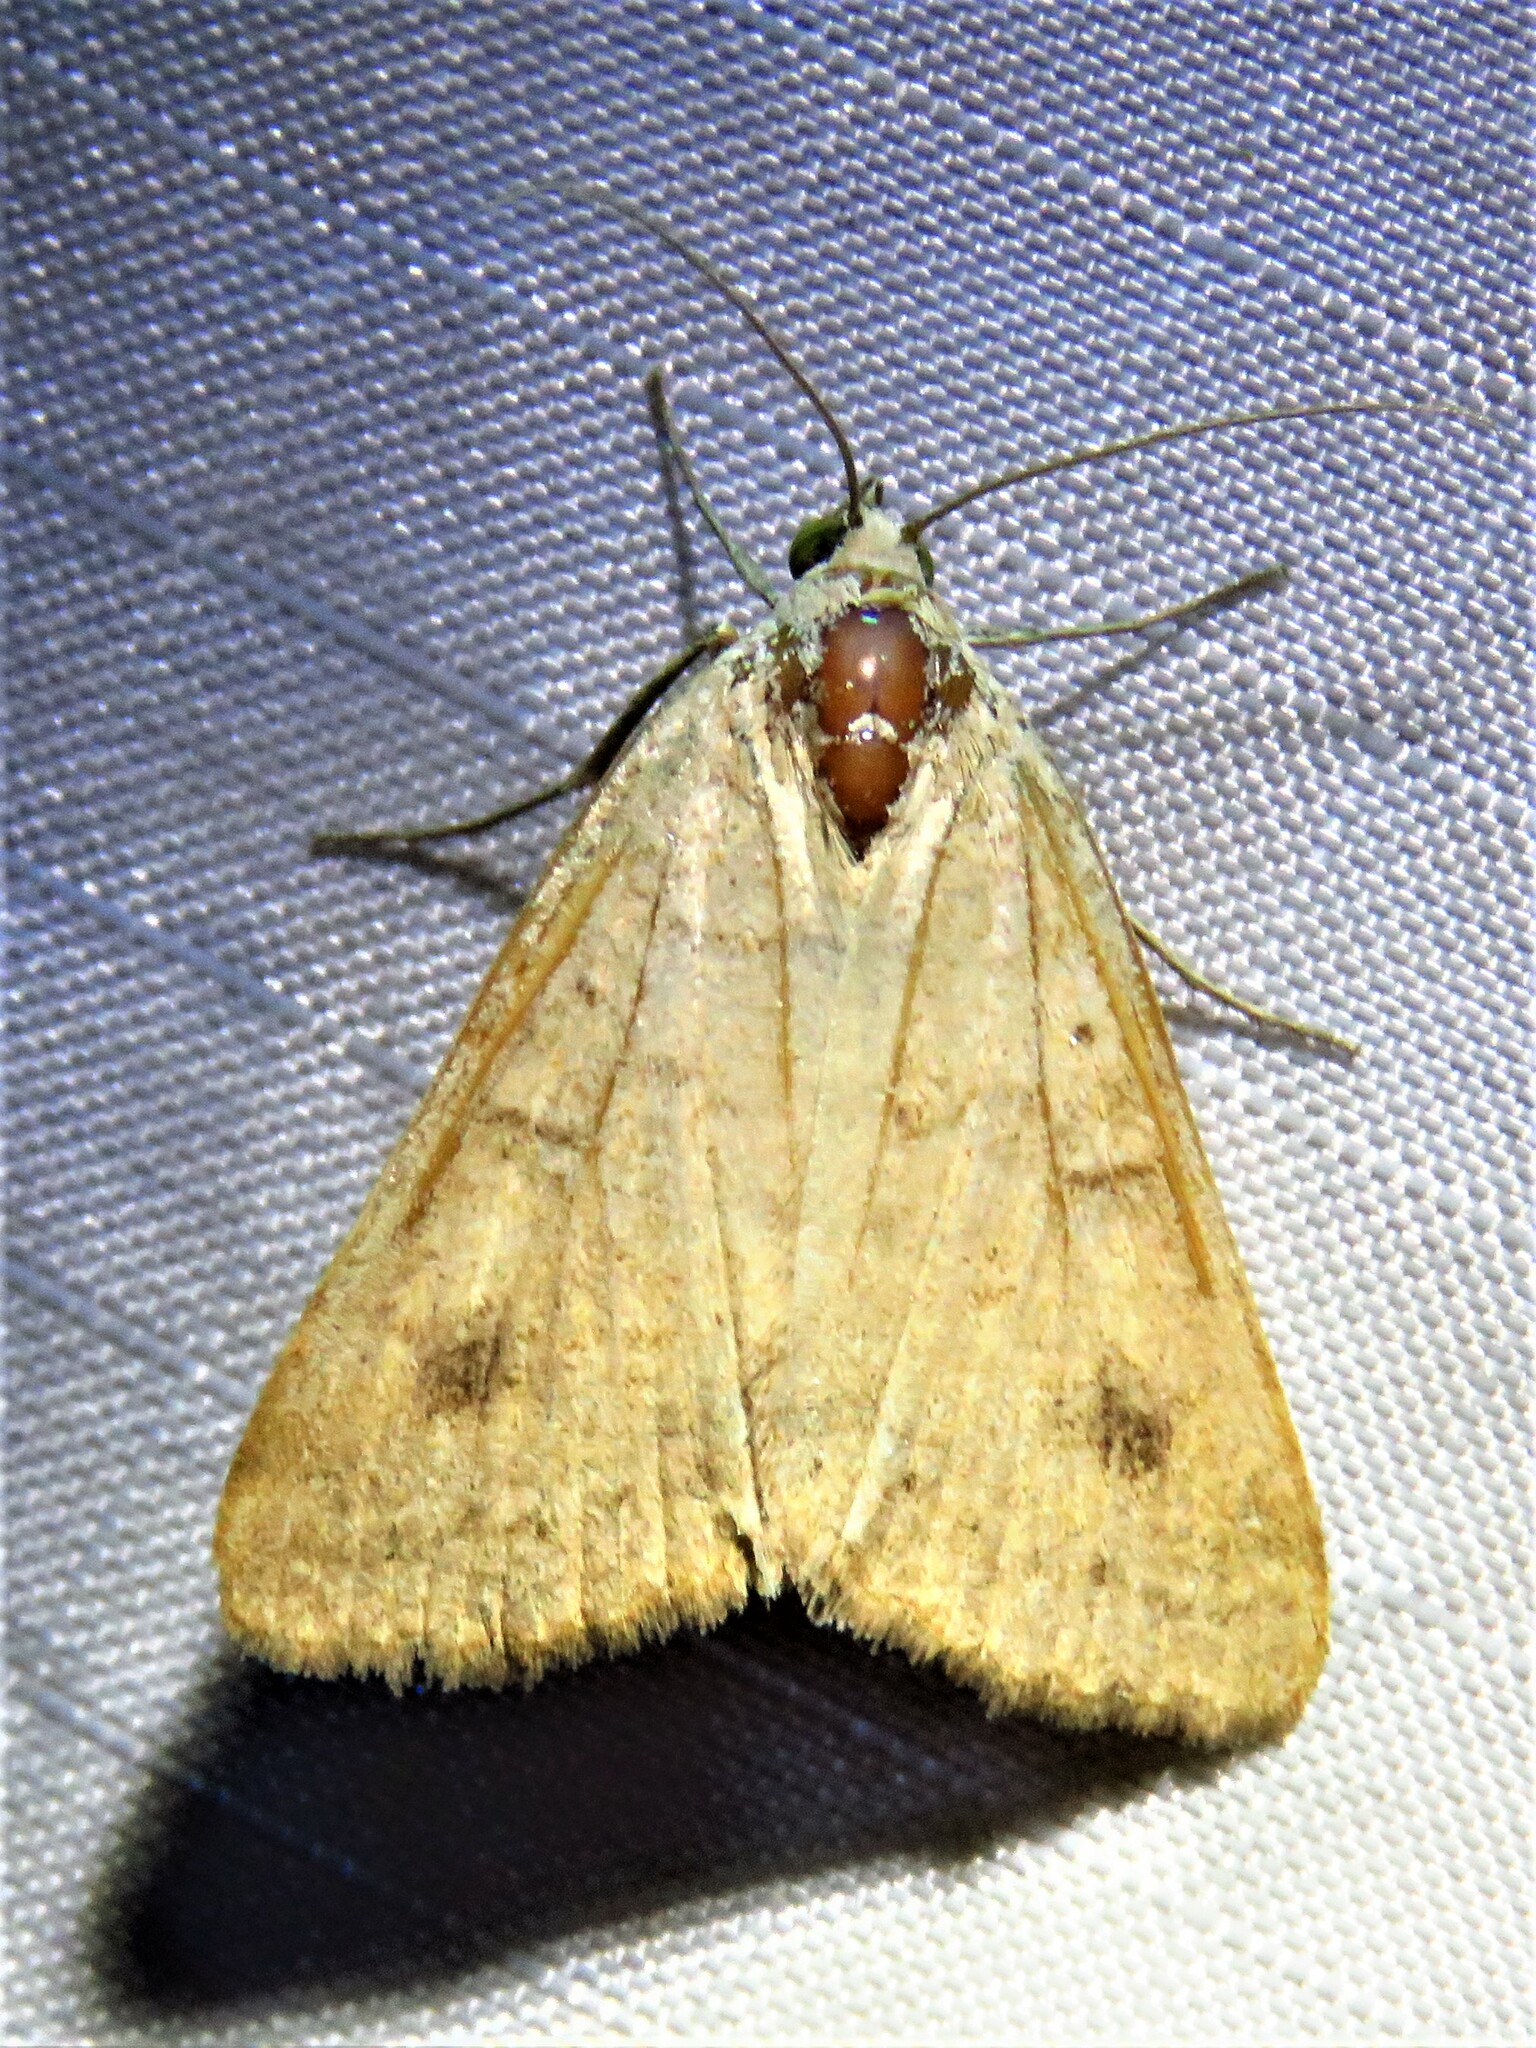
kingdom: Animalia
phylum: Arthropoda
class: Insecta
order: Lepidoptera
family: Erebidae
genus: Caenurgia
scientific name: Caenurgia chloropha
